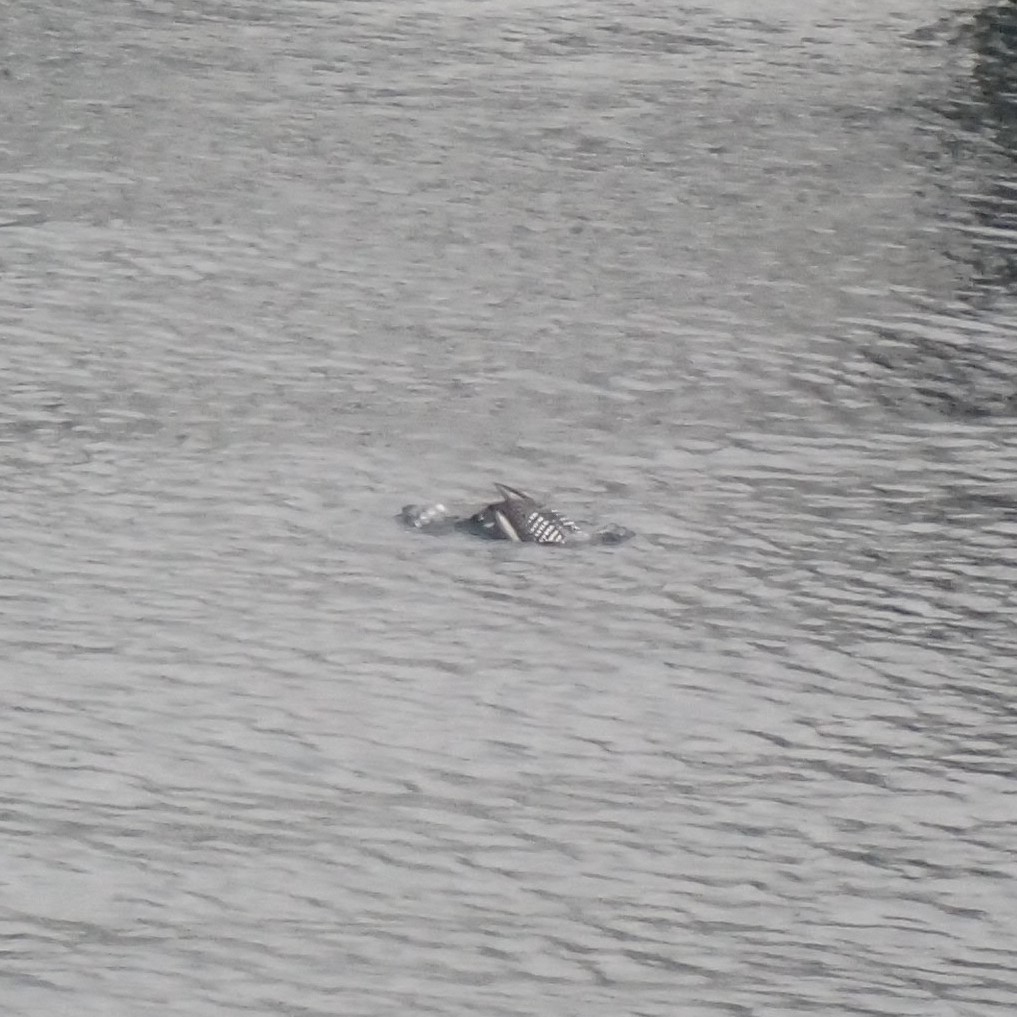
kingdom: Animalia
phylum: Chordata
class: Aves
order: Gaviiformes
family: Gaviidae
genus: Gavia
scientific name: Gavia immer
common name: Common loon
